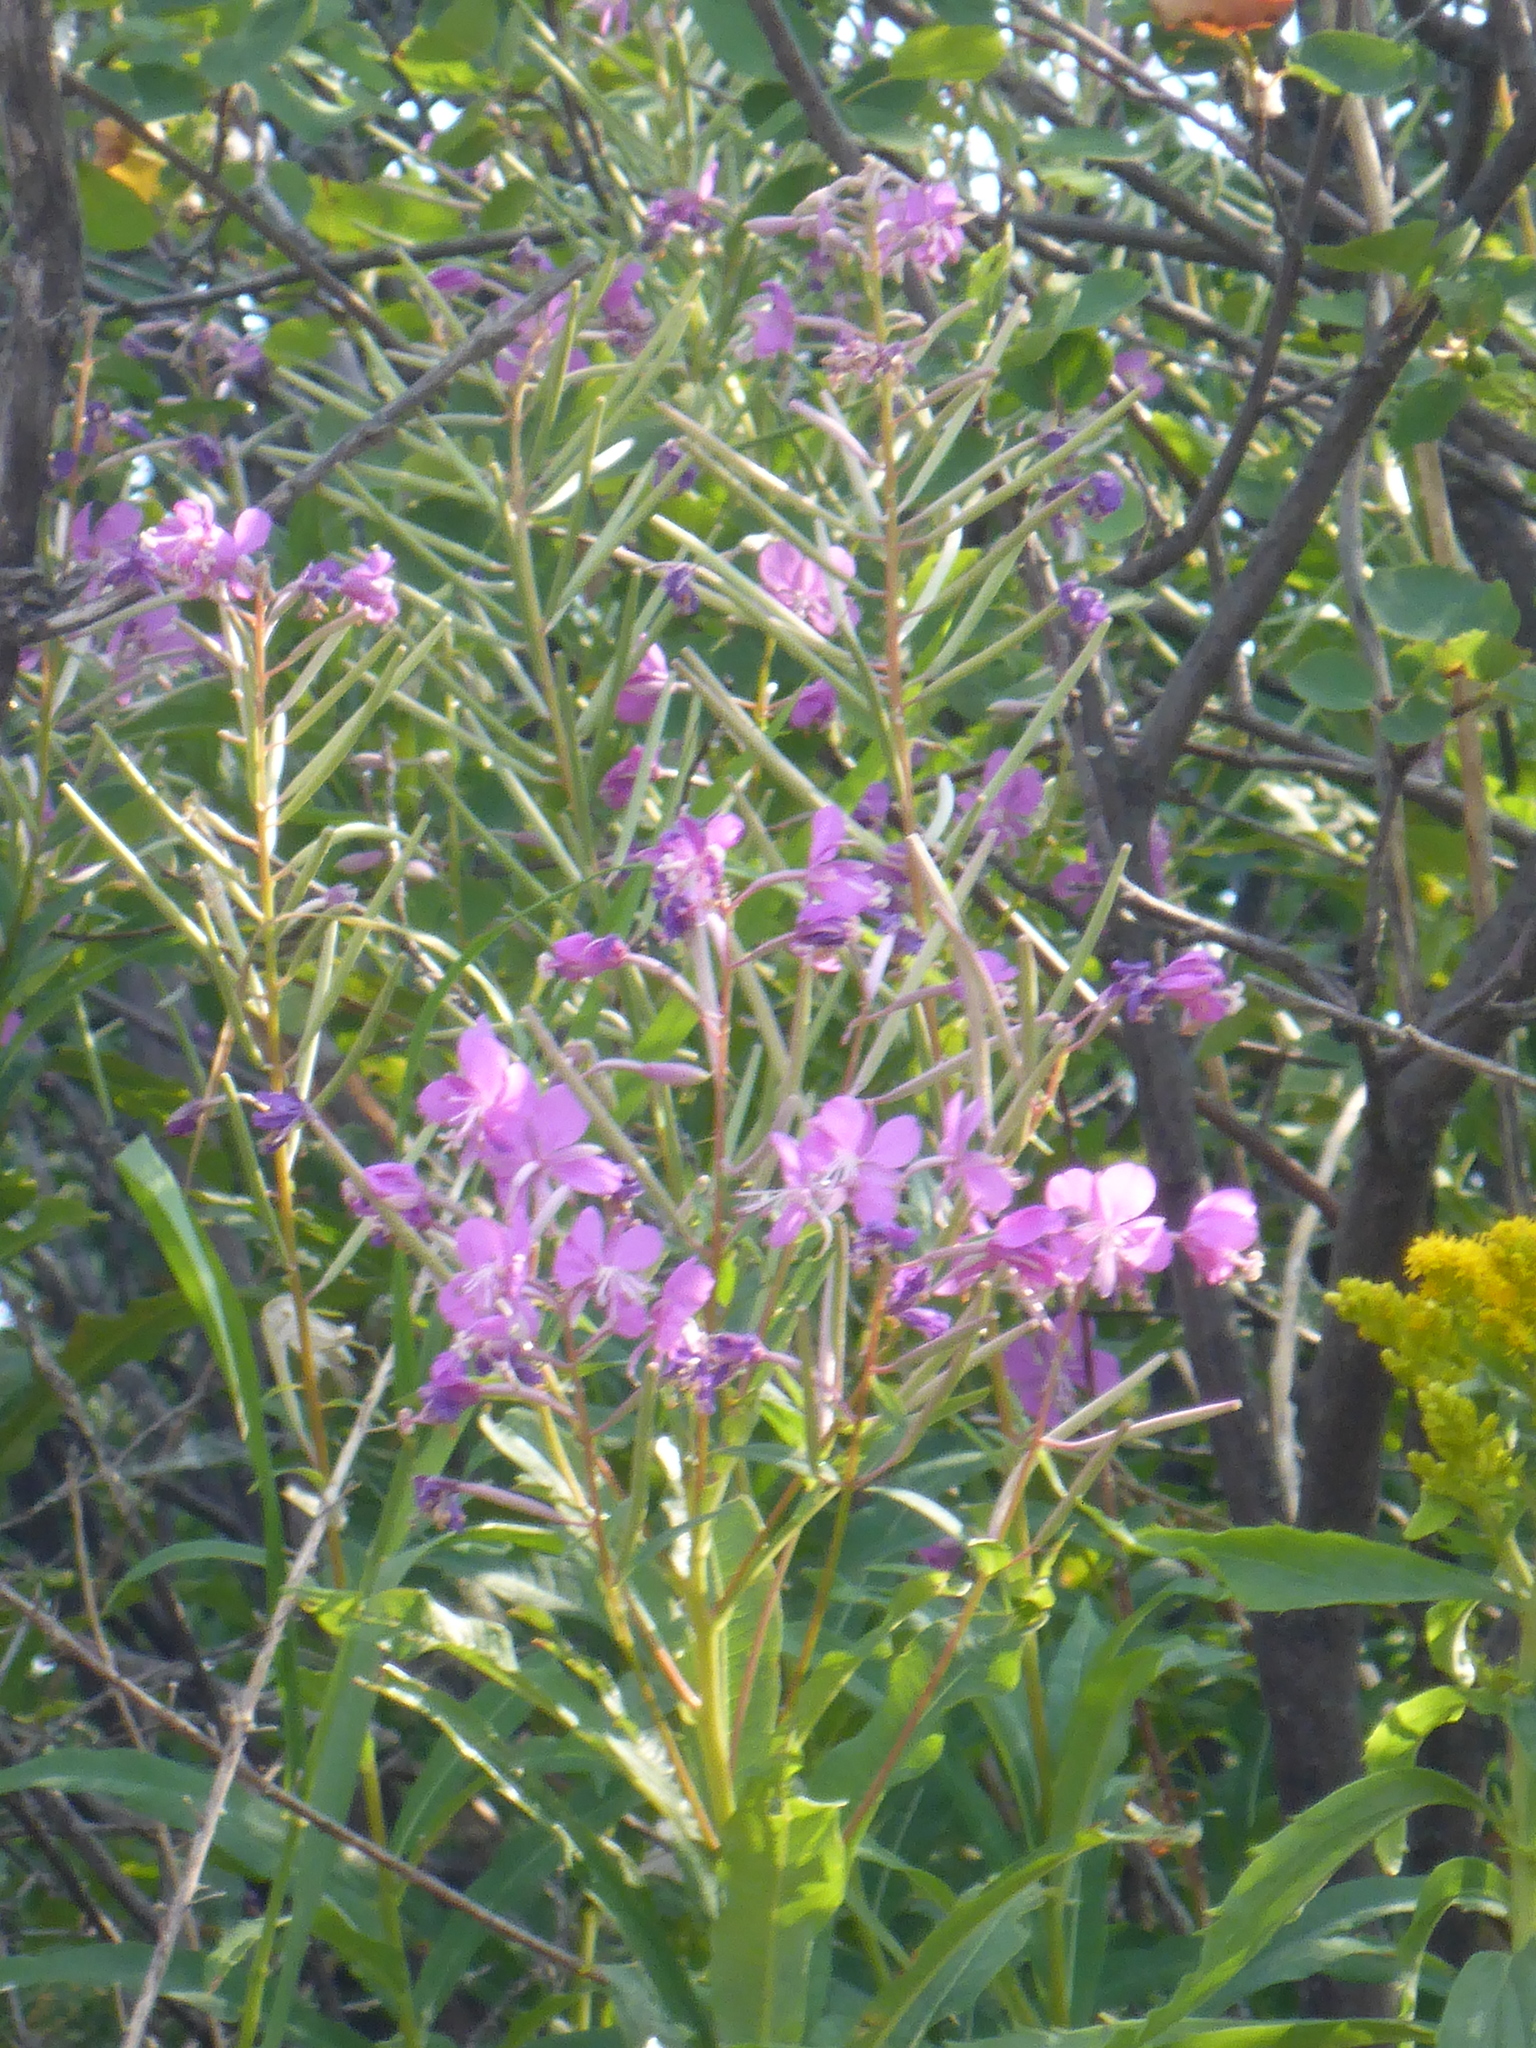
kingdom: Plantae
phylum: Tracheophyta
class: Magnoliopsida
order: Myrtales
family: Onagraceae
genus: Chamaenerion
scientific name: Chamaenerion angustifolium
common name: Fireweed
